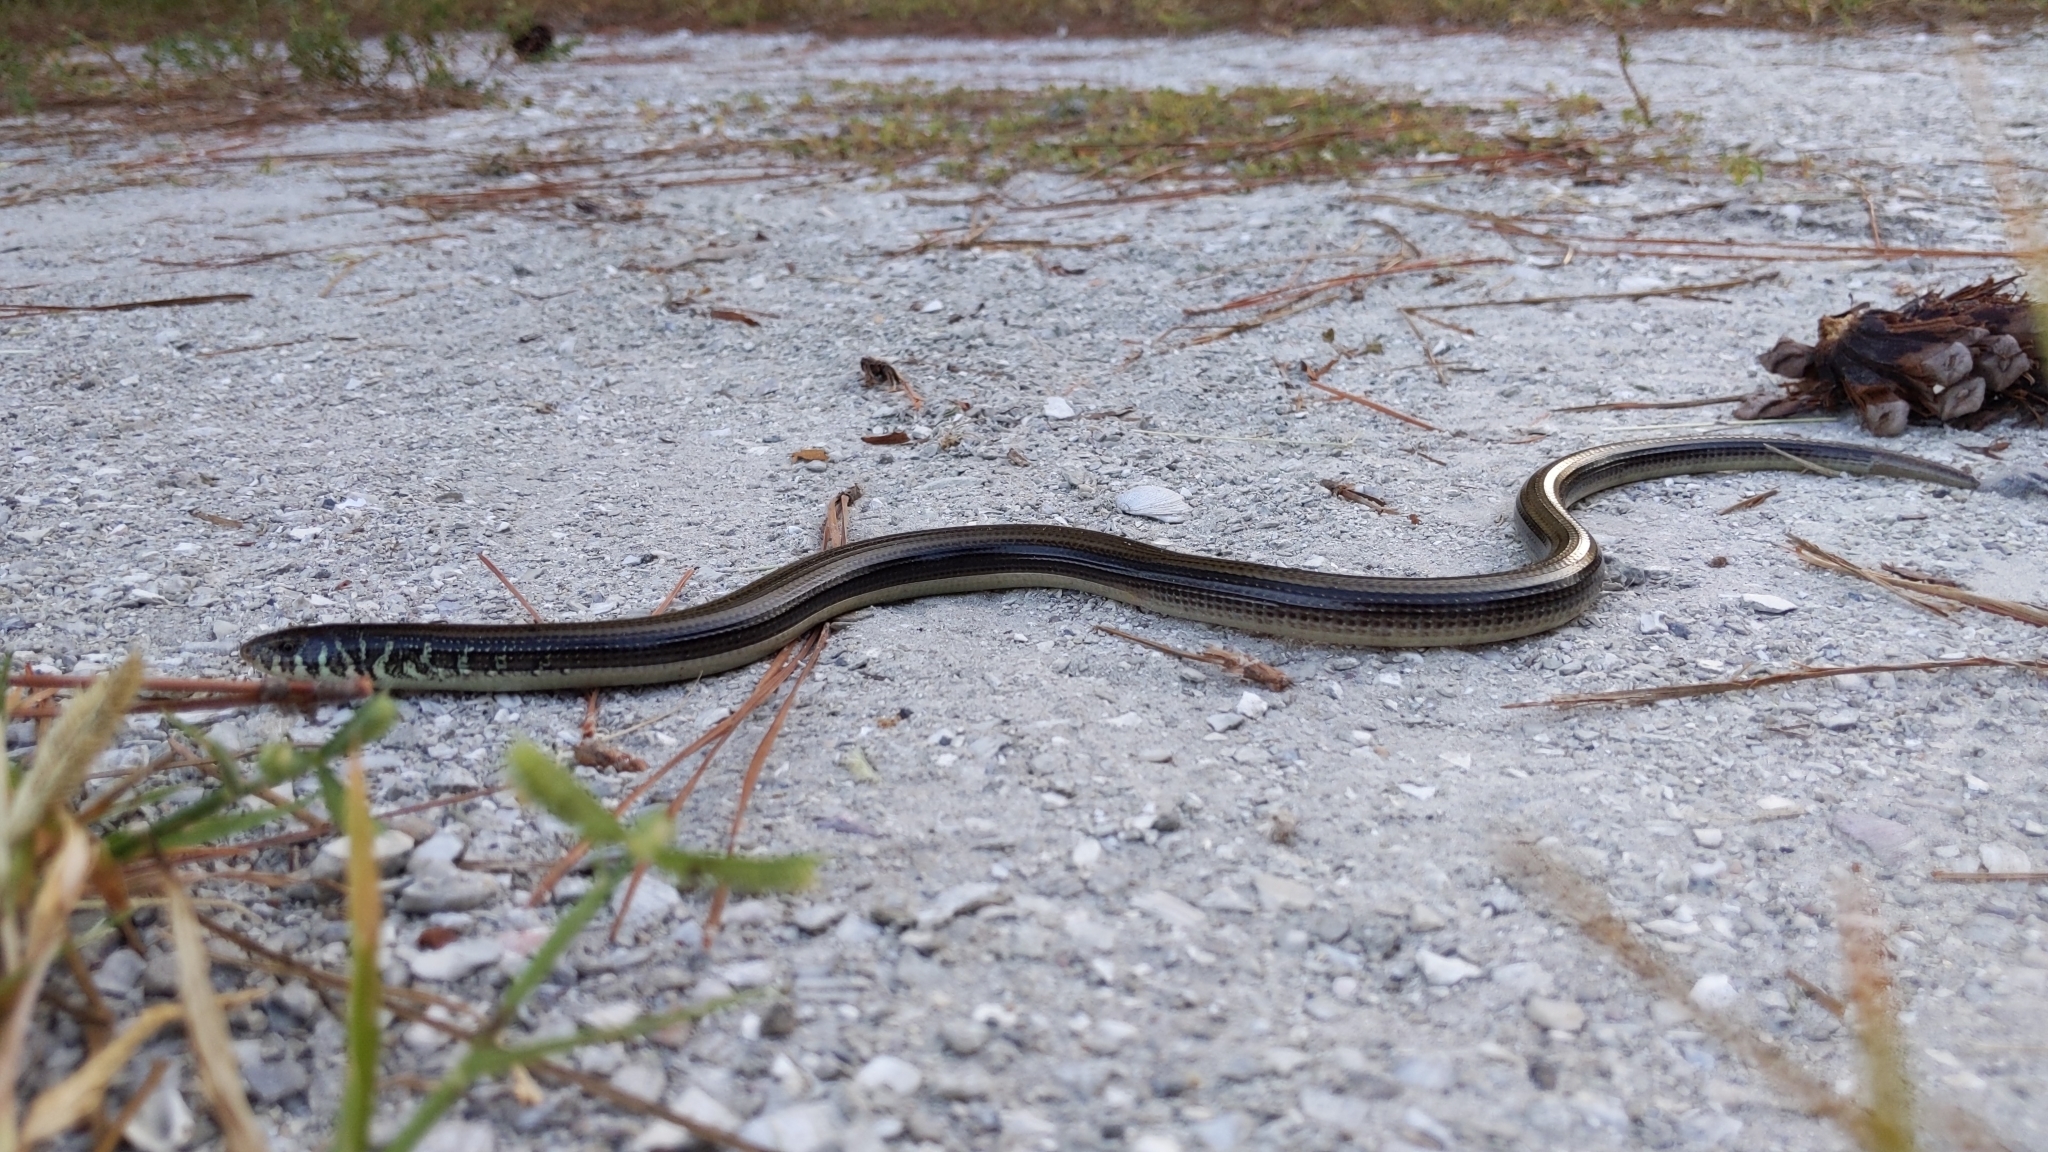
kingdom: Animalia
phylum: Chordata
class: Squamata
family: Anguidae
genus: Ophisaurus
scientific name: Ophisaurus ventralis
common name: Eastern glass lizard
